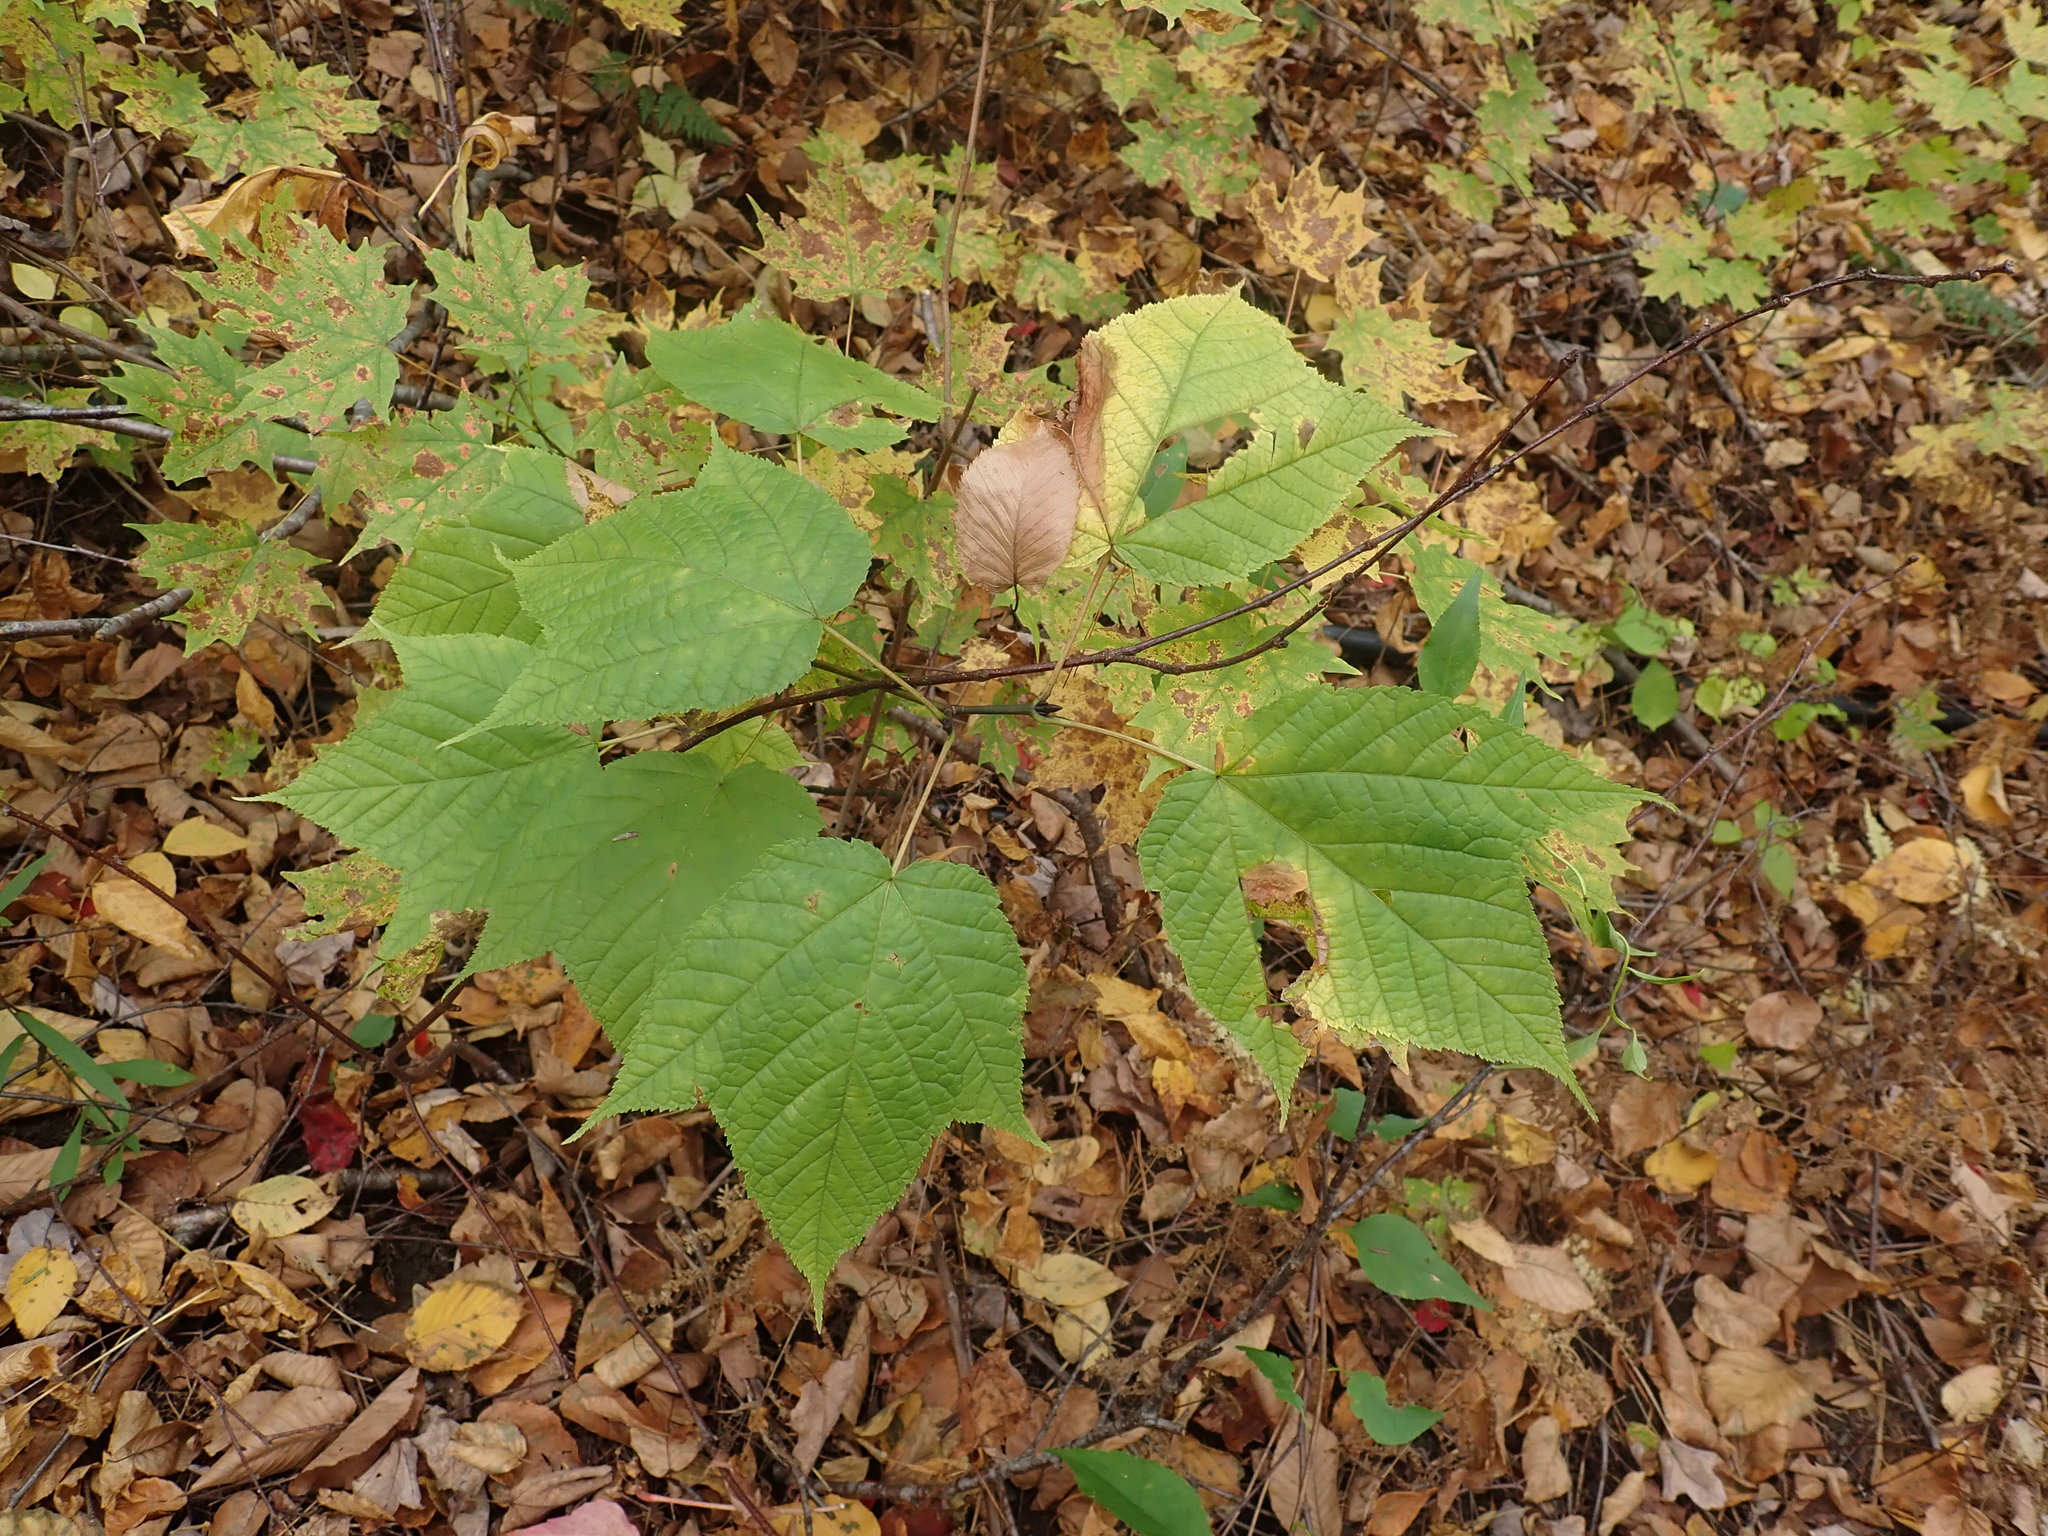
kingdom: Plantae
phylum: Tracheophyta
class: Magnoliopsida
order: Sapindales
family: Sapindaceae
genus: Acer
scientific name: Acer pensylvanicum
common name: Moosewood
